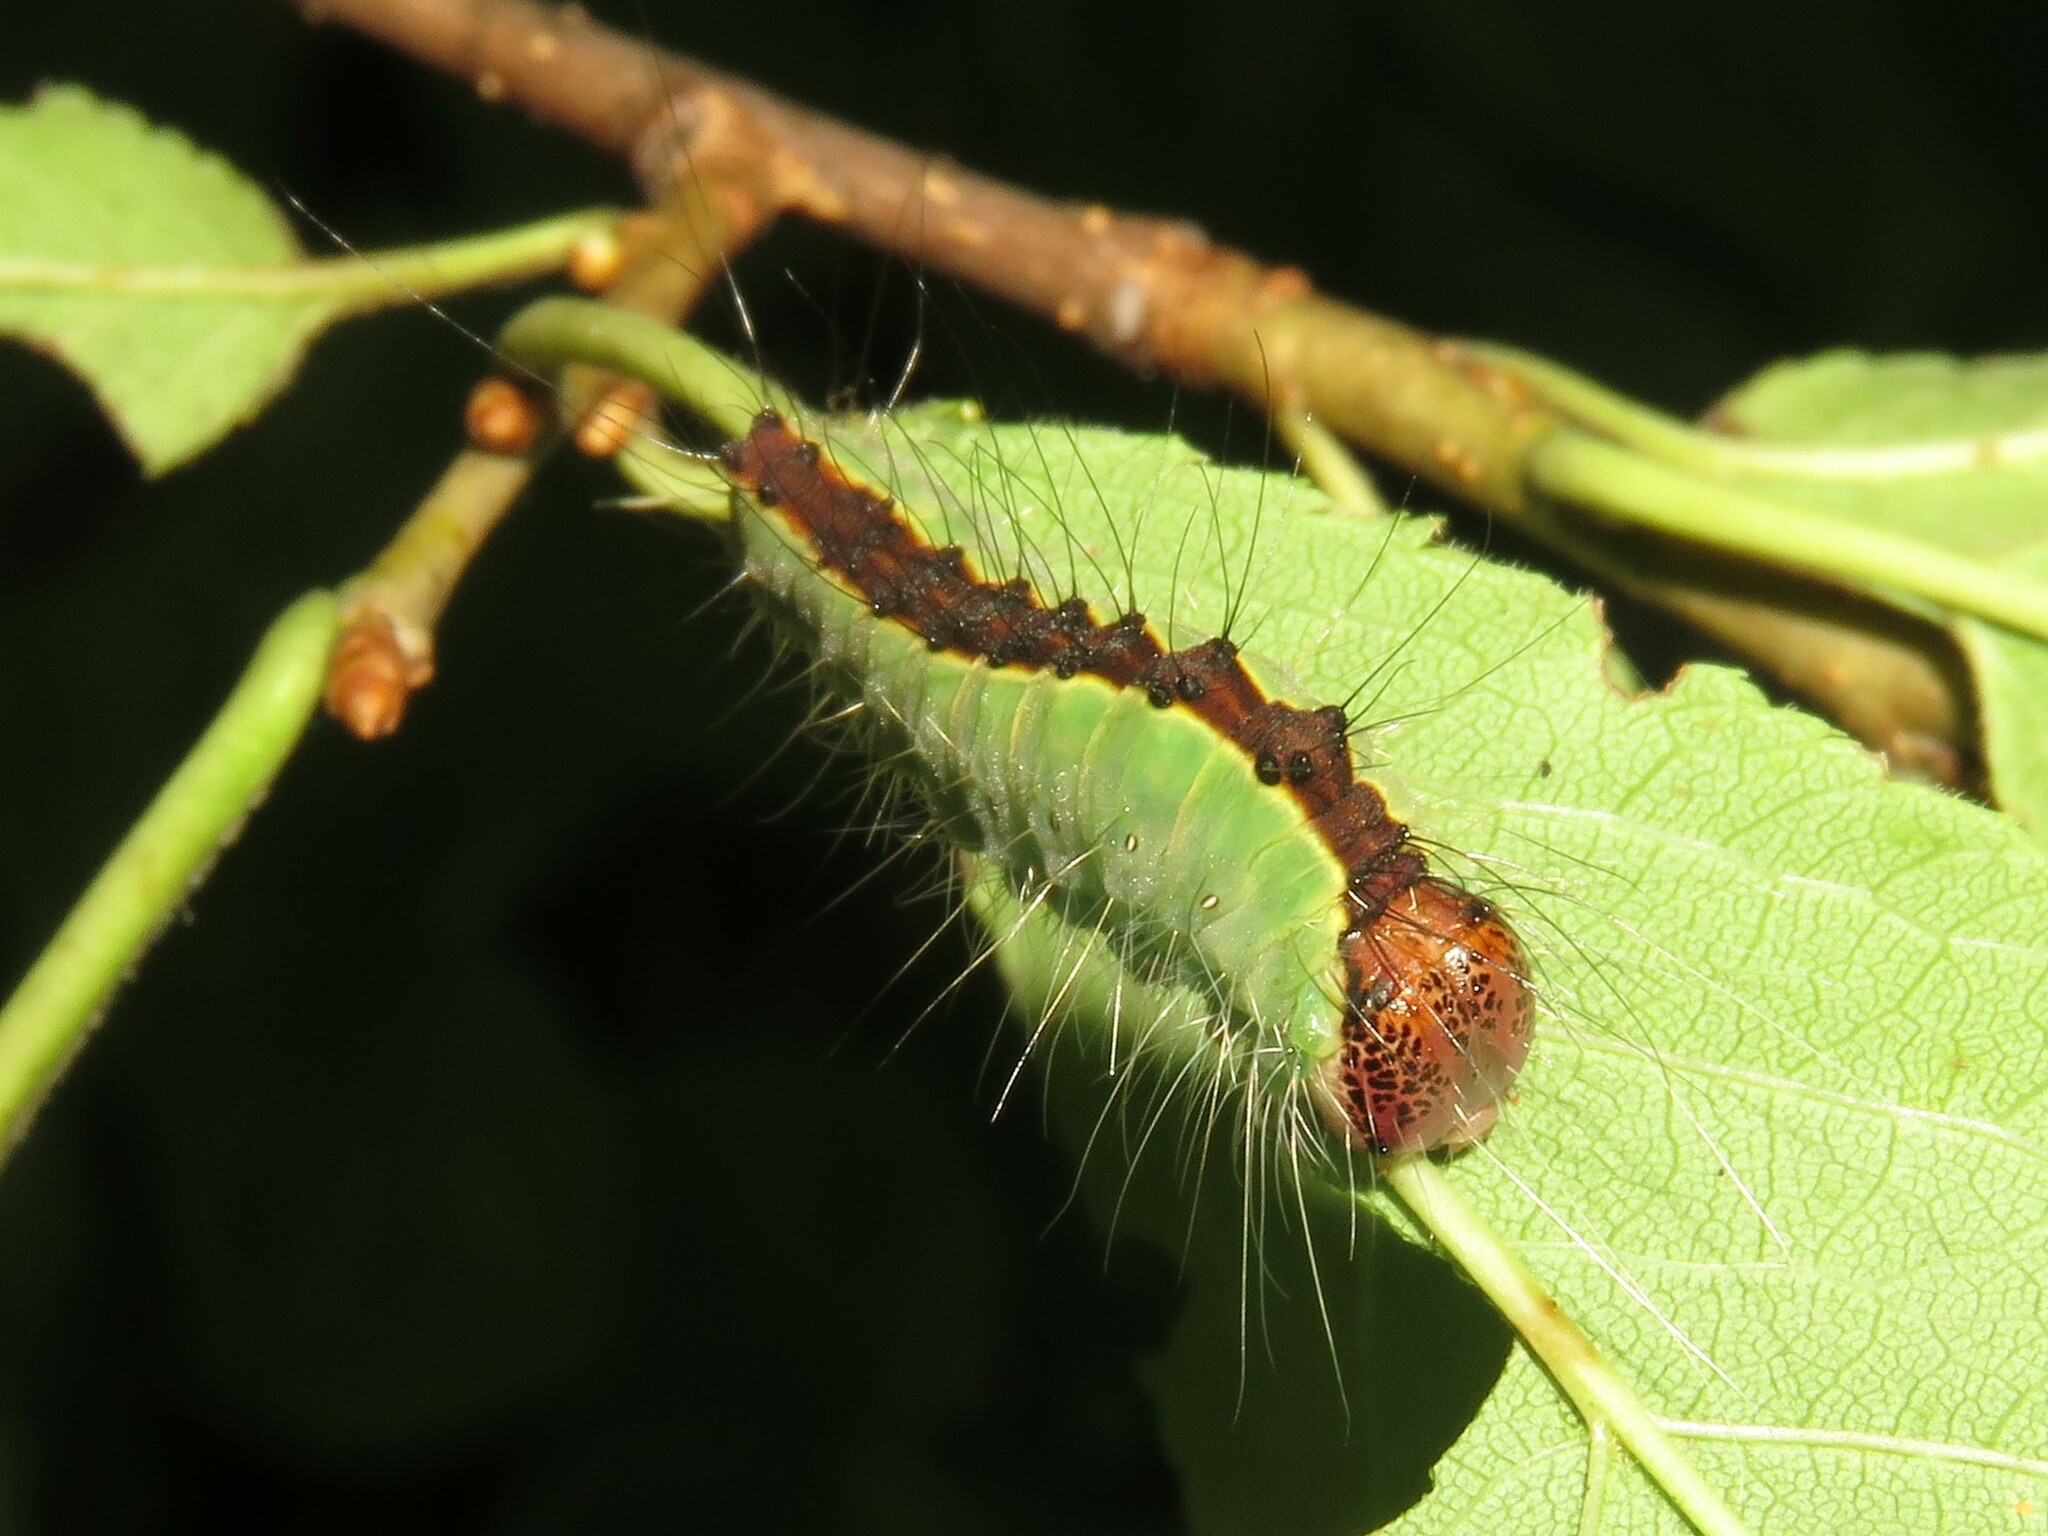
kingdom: Animalia
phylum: Arthropoda
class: Insecta
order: Lepidoptera
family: Noctuidae
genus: Acronicta
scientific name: Acronicta superans
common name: Splendid dagger
